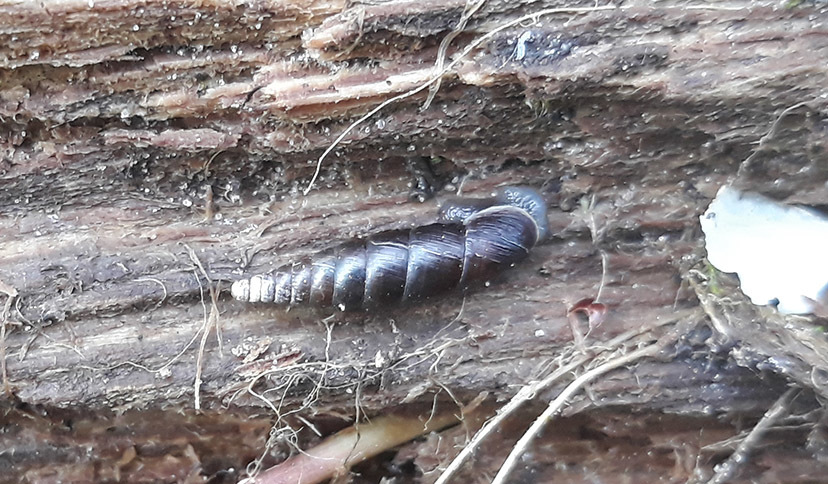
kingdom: Animalia
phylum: Mollusca
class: Gastropoda
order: Stylommatophora
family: Clausiliidae
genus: Cochlodina
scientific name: Cochlodina laminata
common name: Plaited door snail
